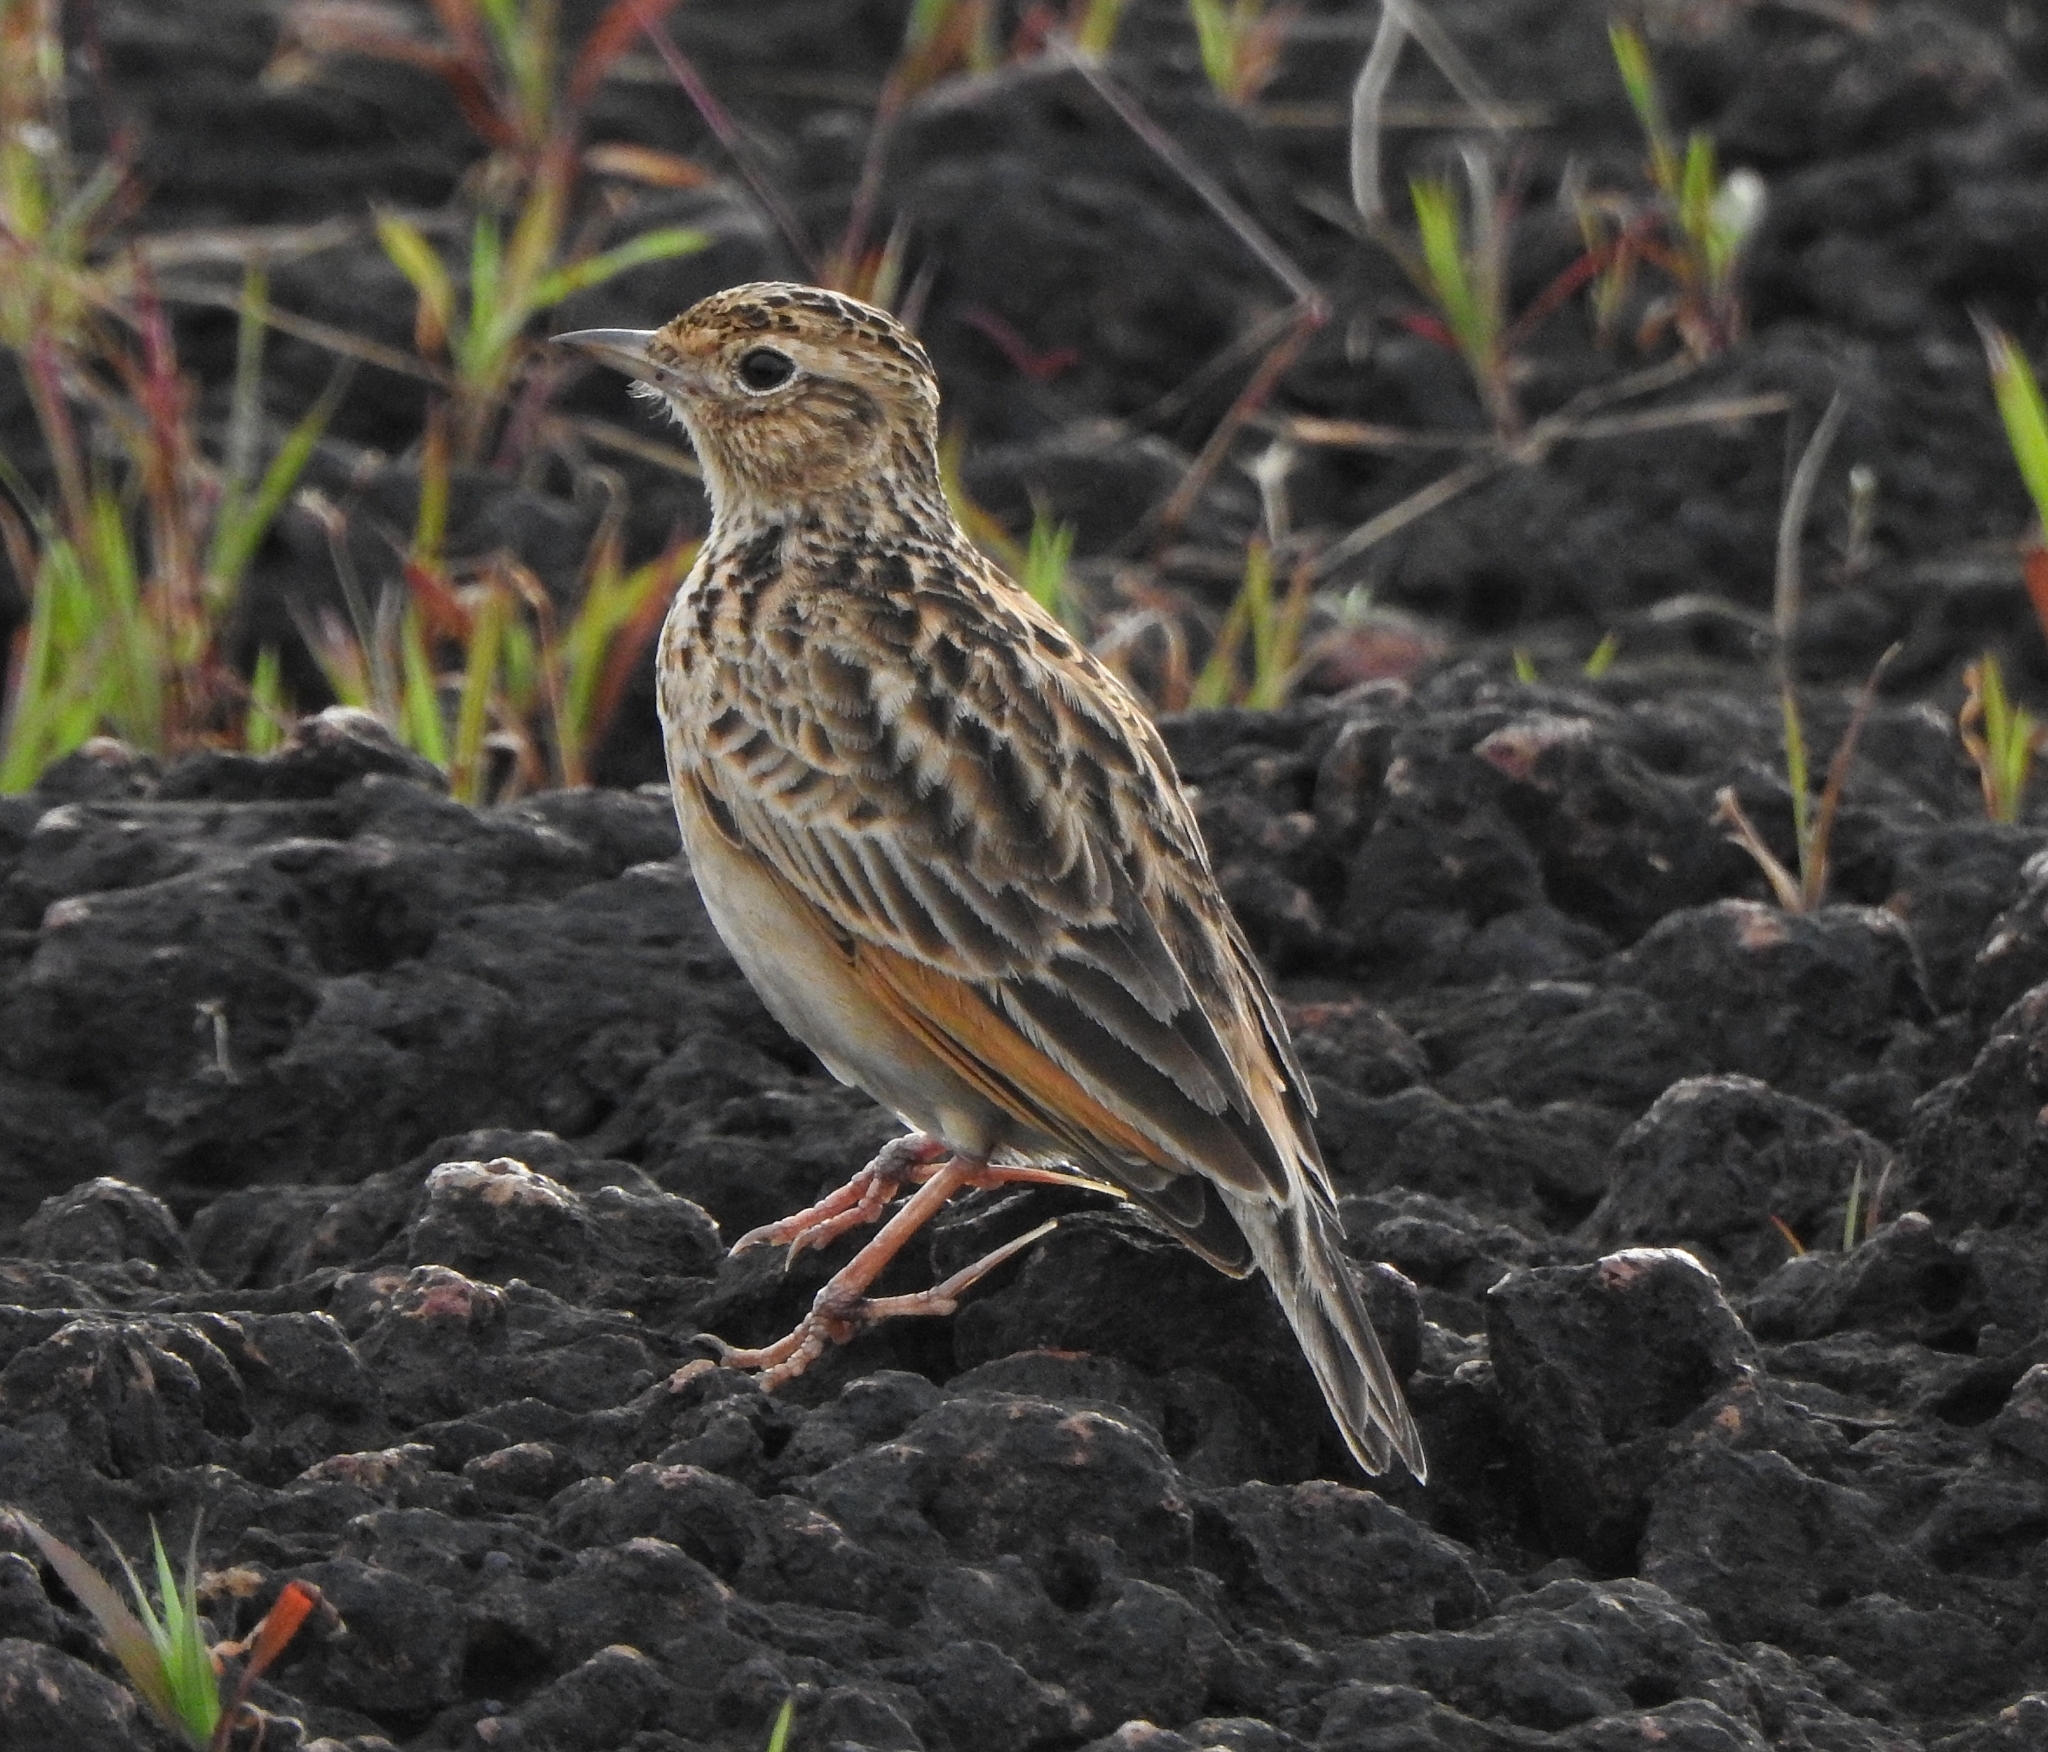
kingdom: Animalia
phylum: Chordata
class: Aves
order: Passeriformes
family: Alaudidae
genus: Mirafra
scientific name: Mirafra affinis
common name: Jerdon's bushlark
